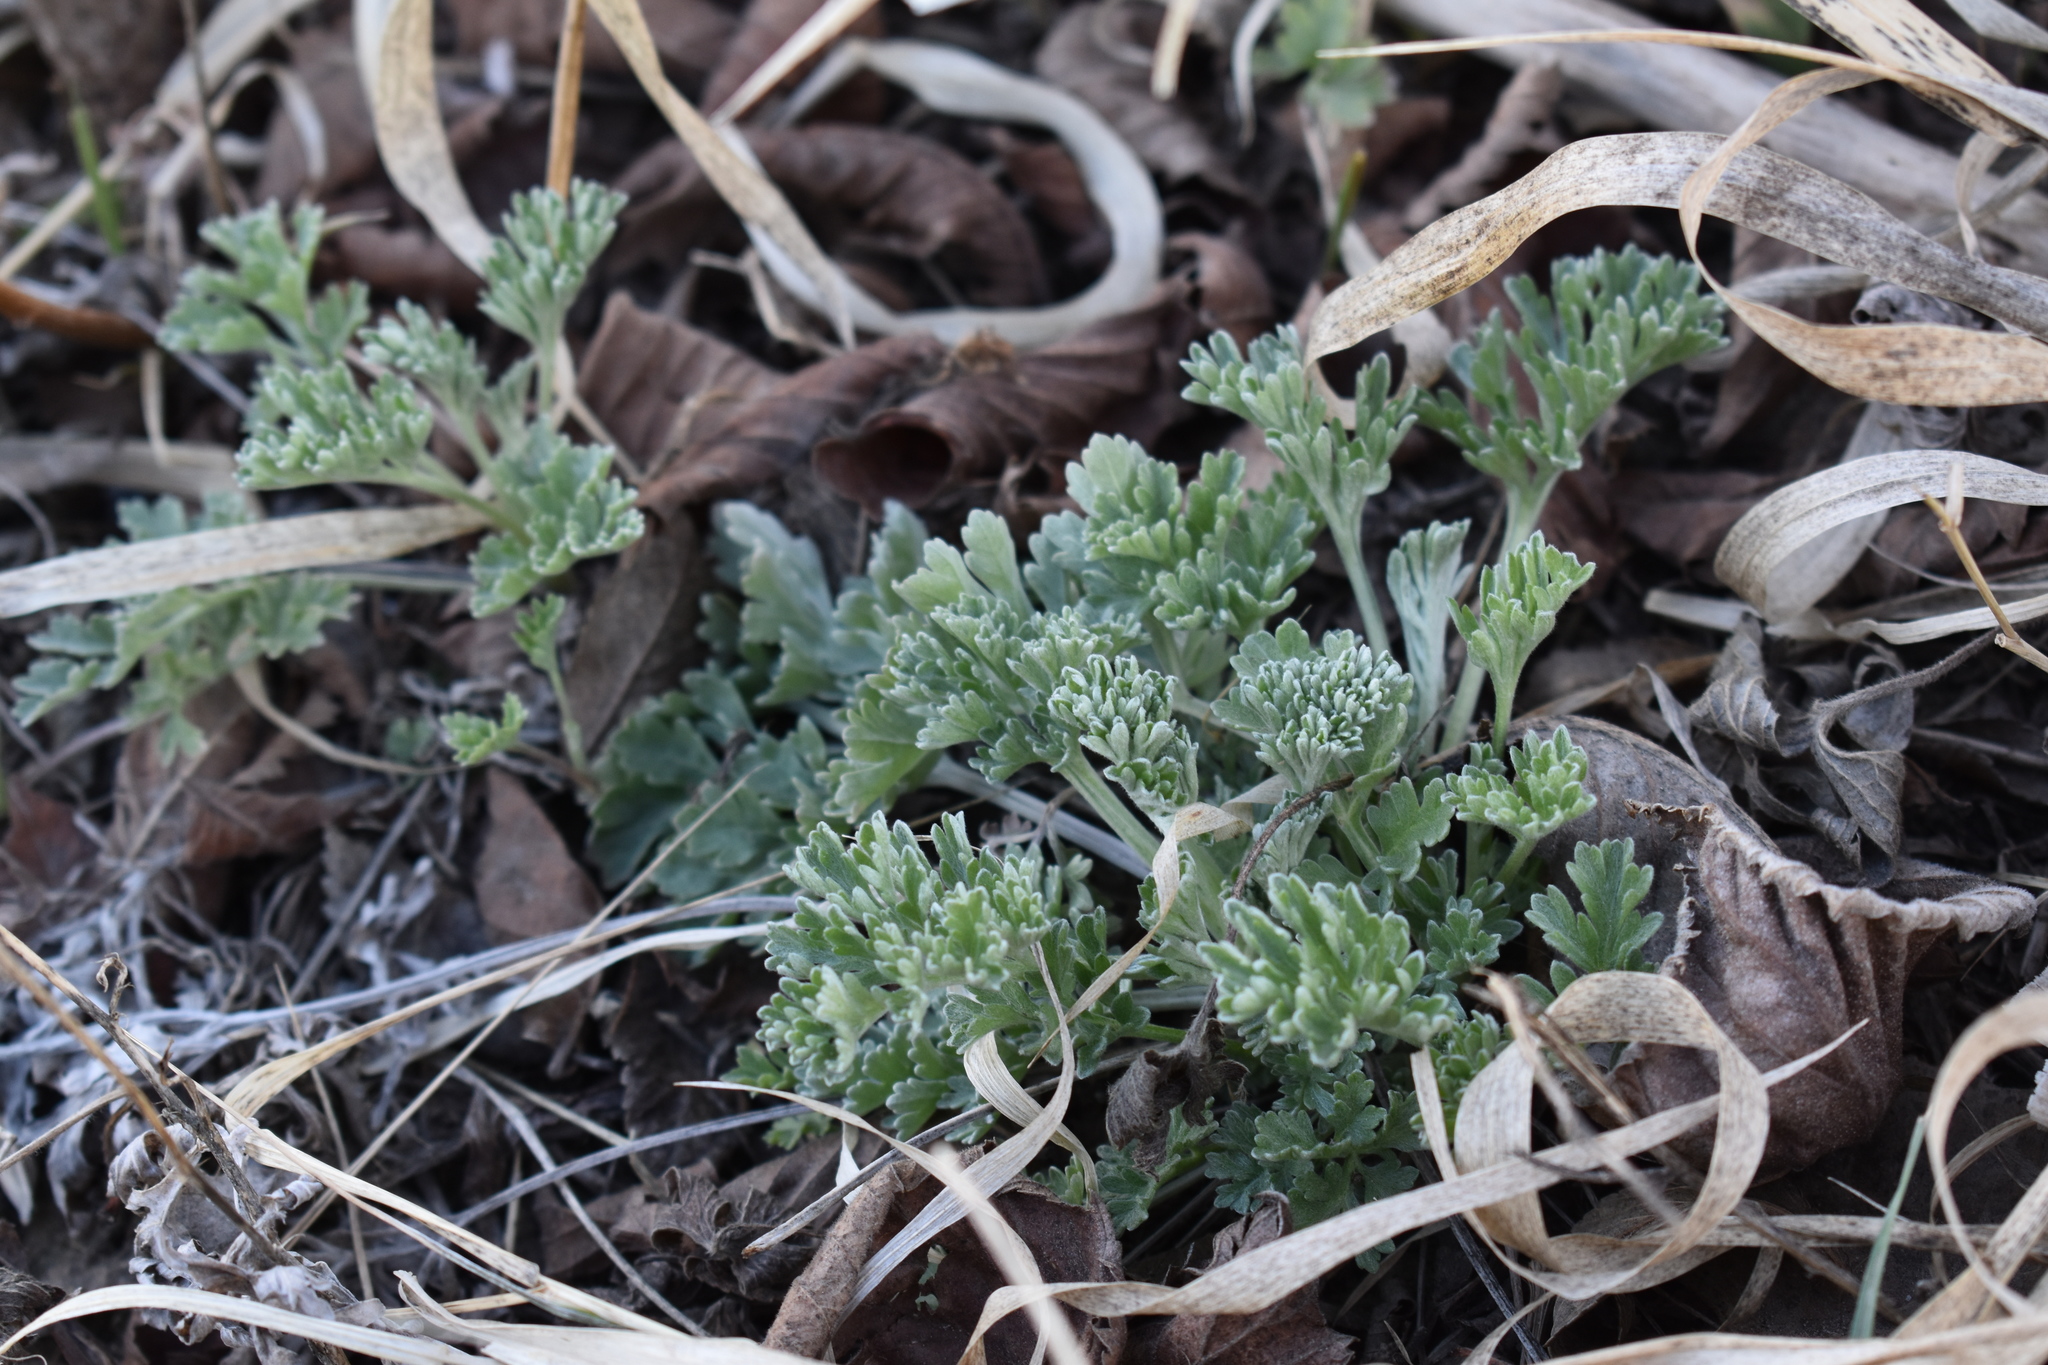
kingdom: Plantae
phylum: Tracheophyta
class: Magnoliopsida
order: Asterales
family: Asteraceae
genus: Artemisia
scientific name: Artemisia absinthium
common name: Wormwood
